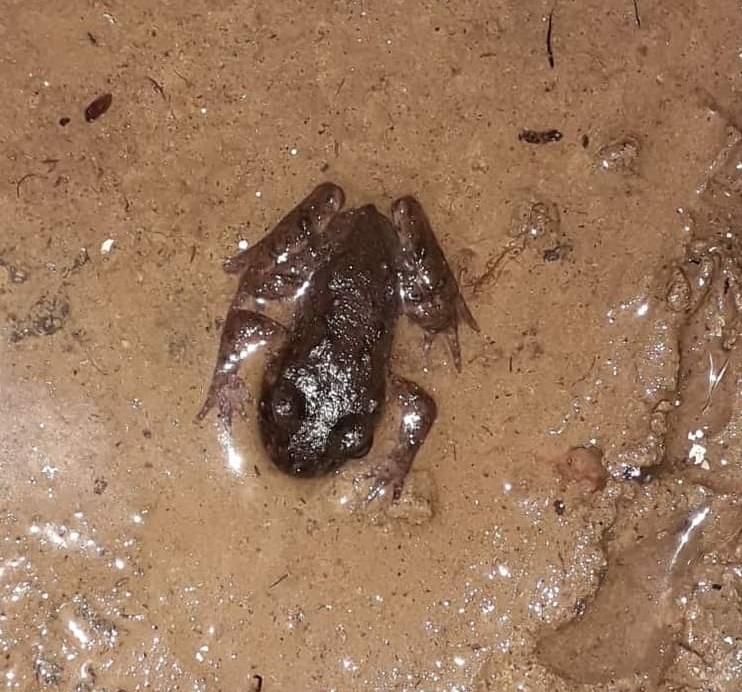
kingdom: Animalia
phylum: Chordata
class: Amphibia
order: Anura
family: Leiopelmatidae
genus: Leiopelma
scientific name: Leiopelma hochstetteri
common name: Hochstetters new zealand frog
